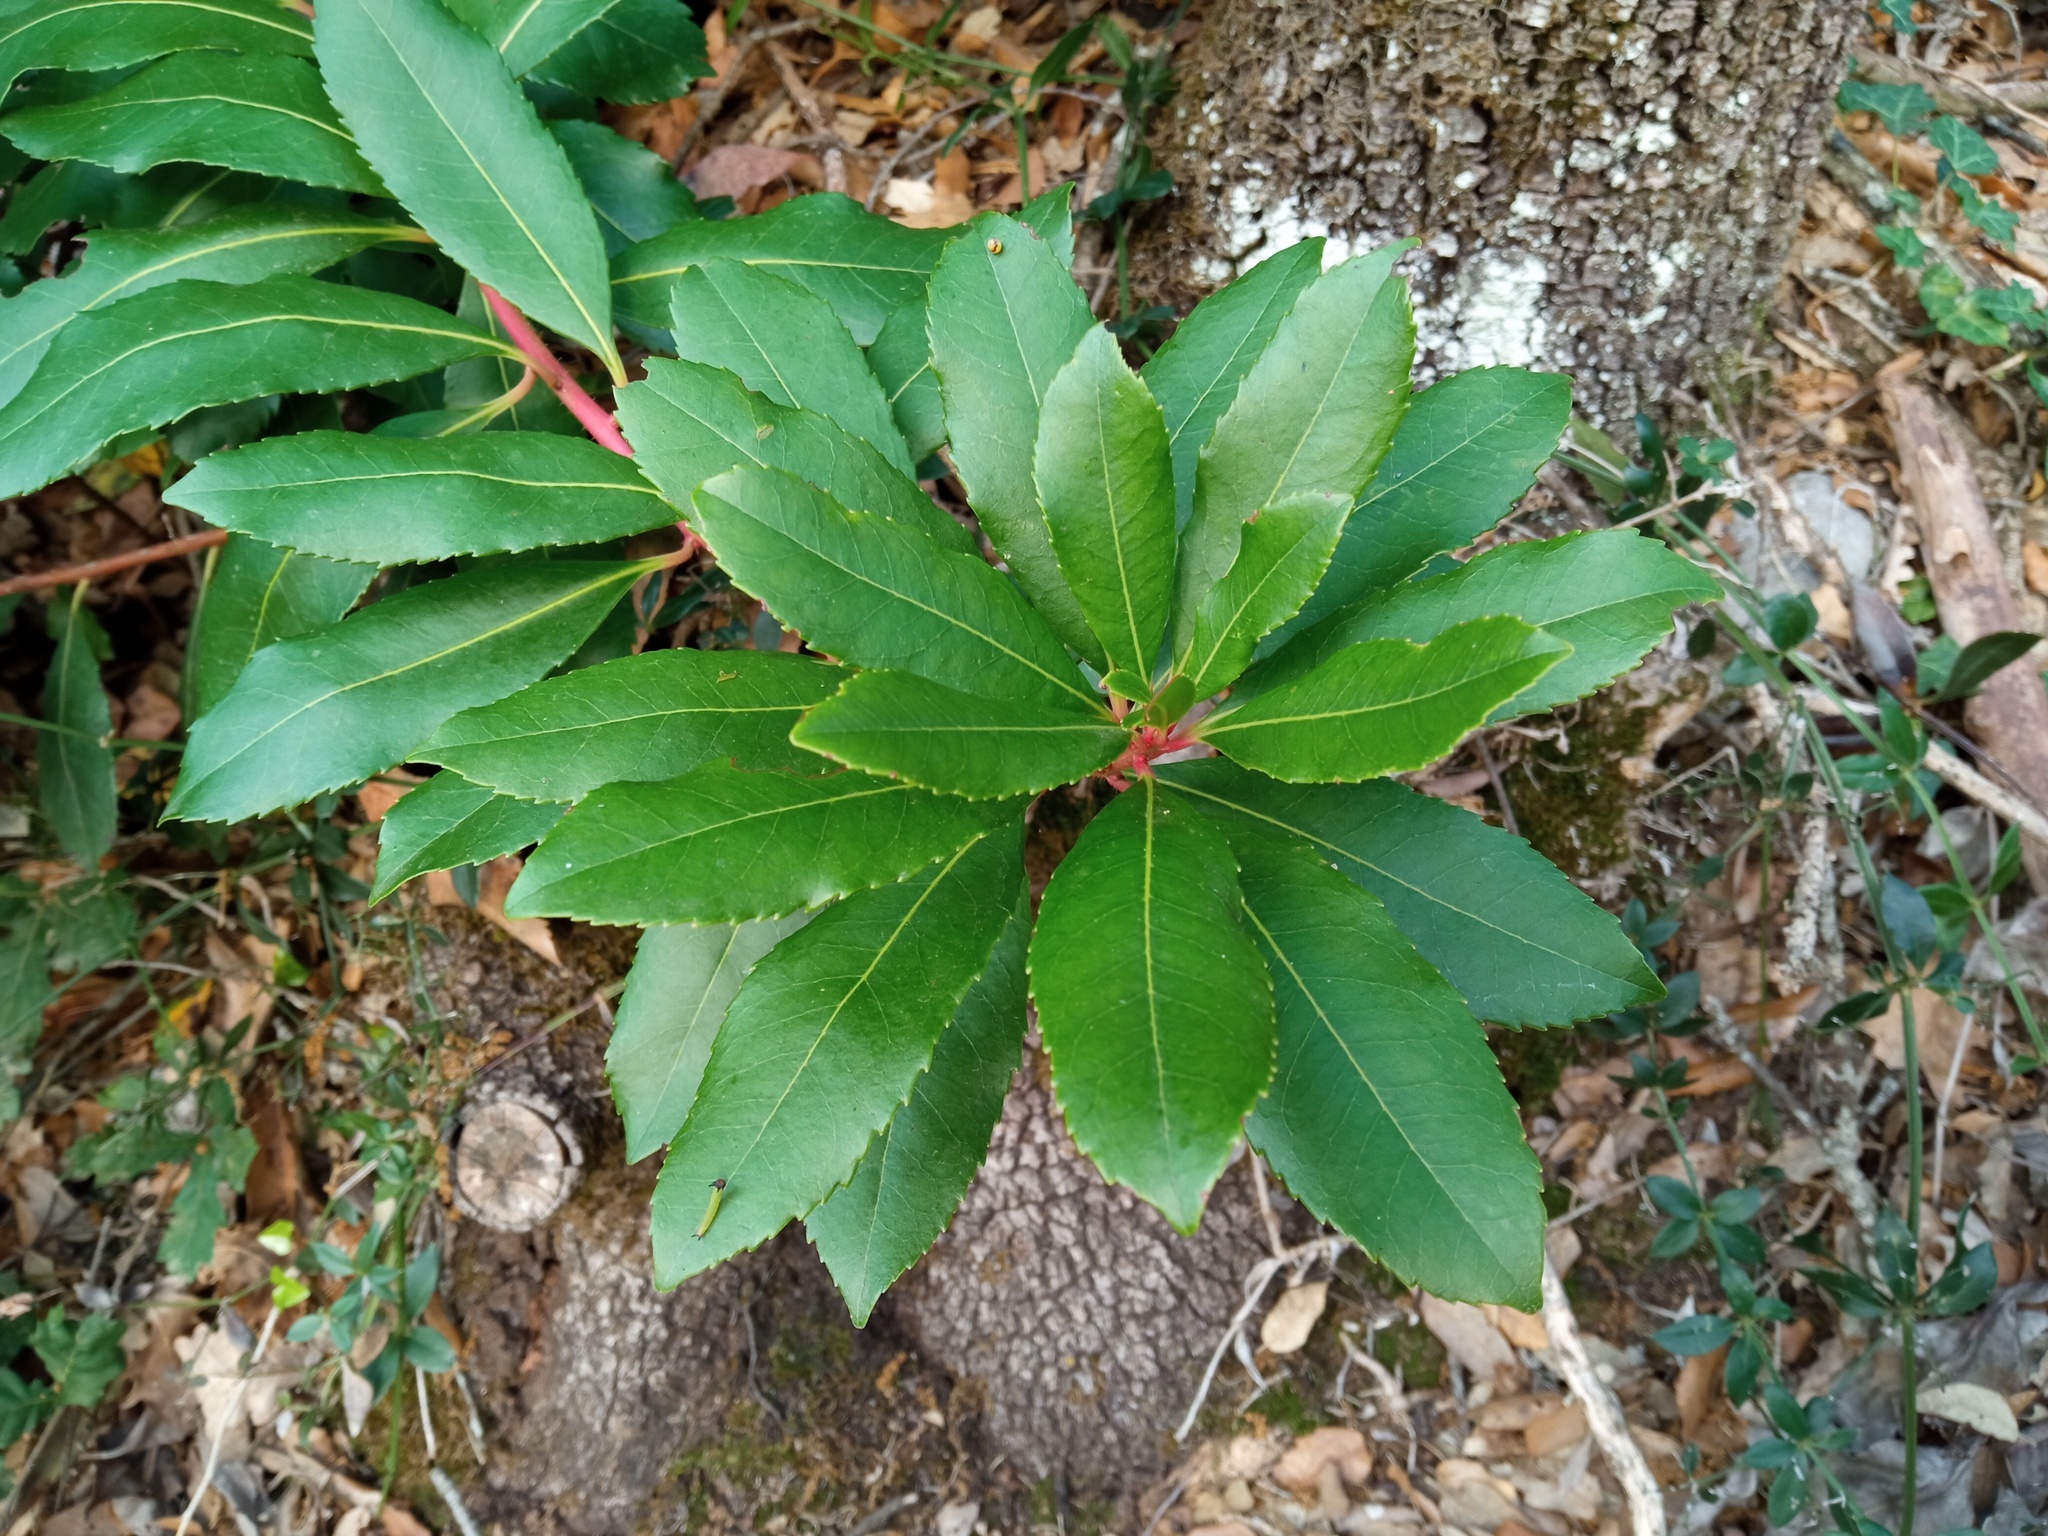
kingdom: Plantae
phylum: Tracheophyta
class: Magnoliopsida
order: Ericales
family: Ericaceae
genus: Arbutus
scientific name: Arbutus unedo
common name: Strawberry-tree
